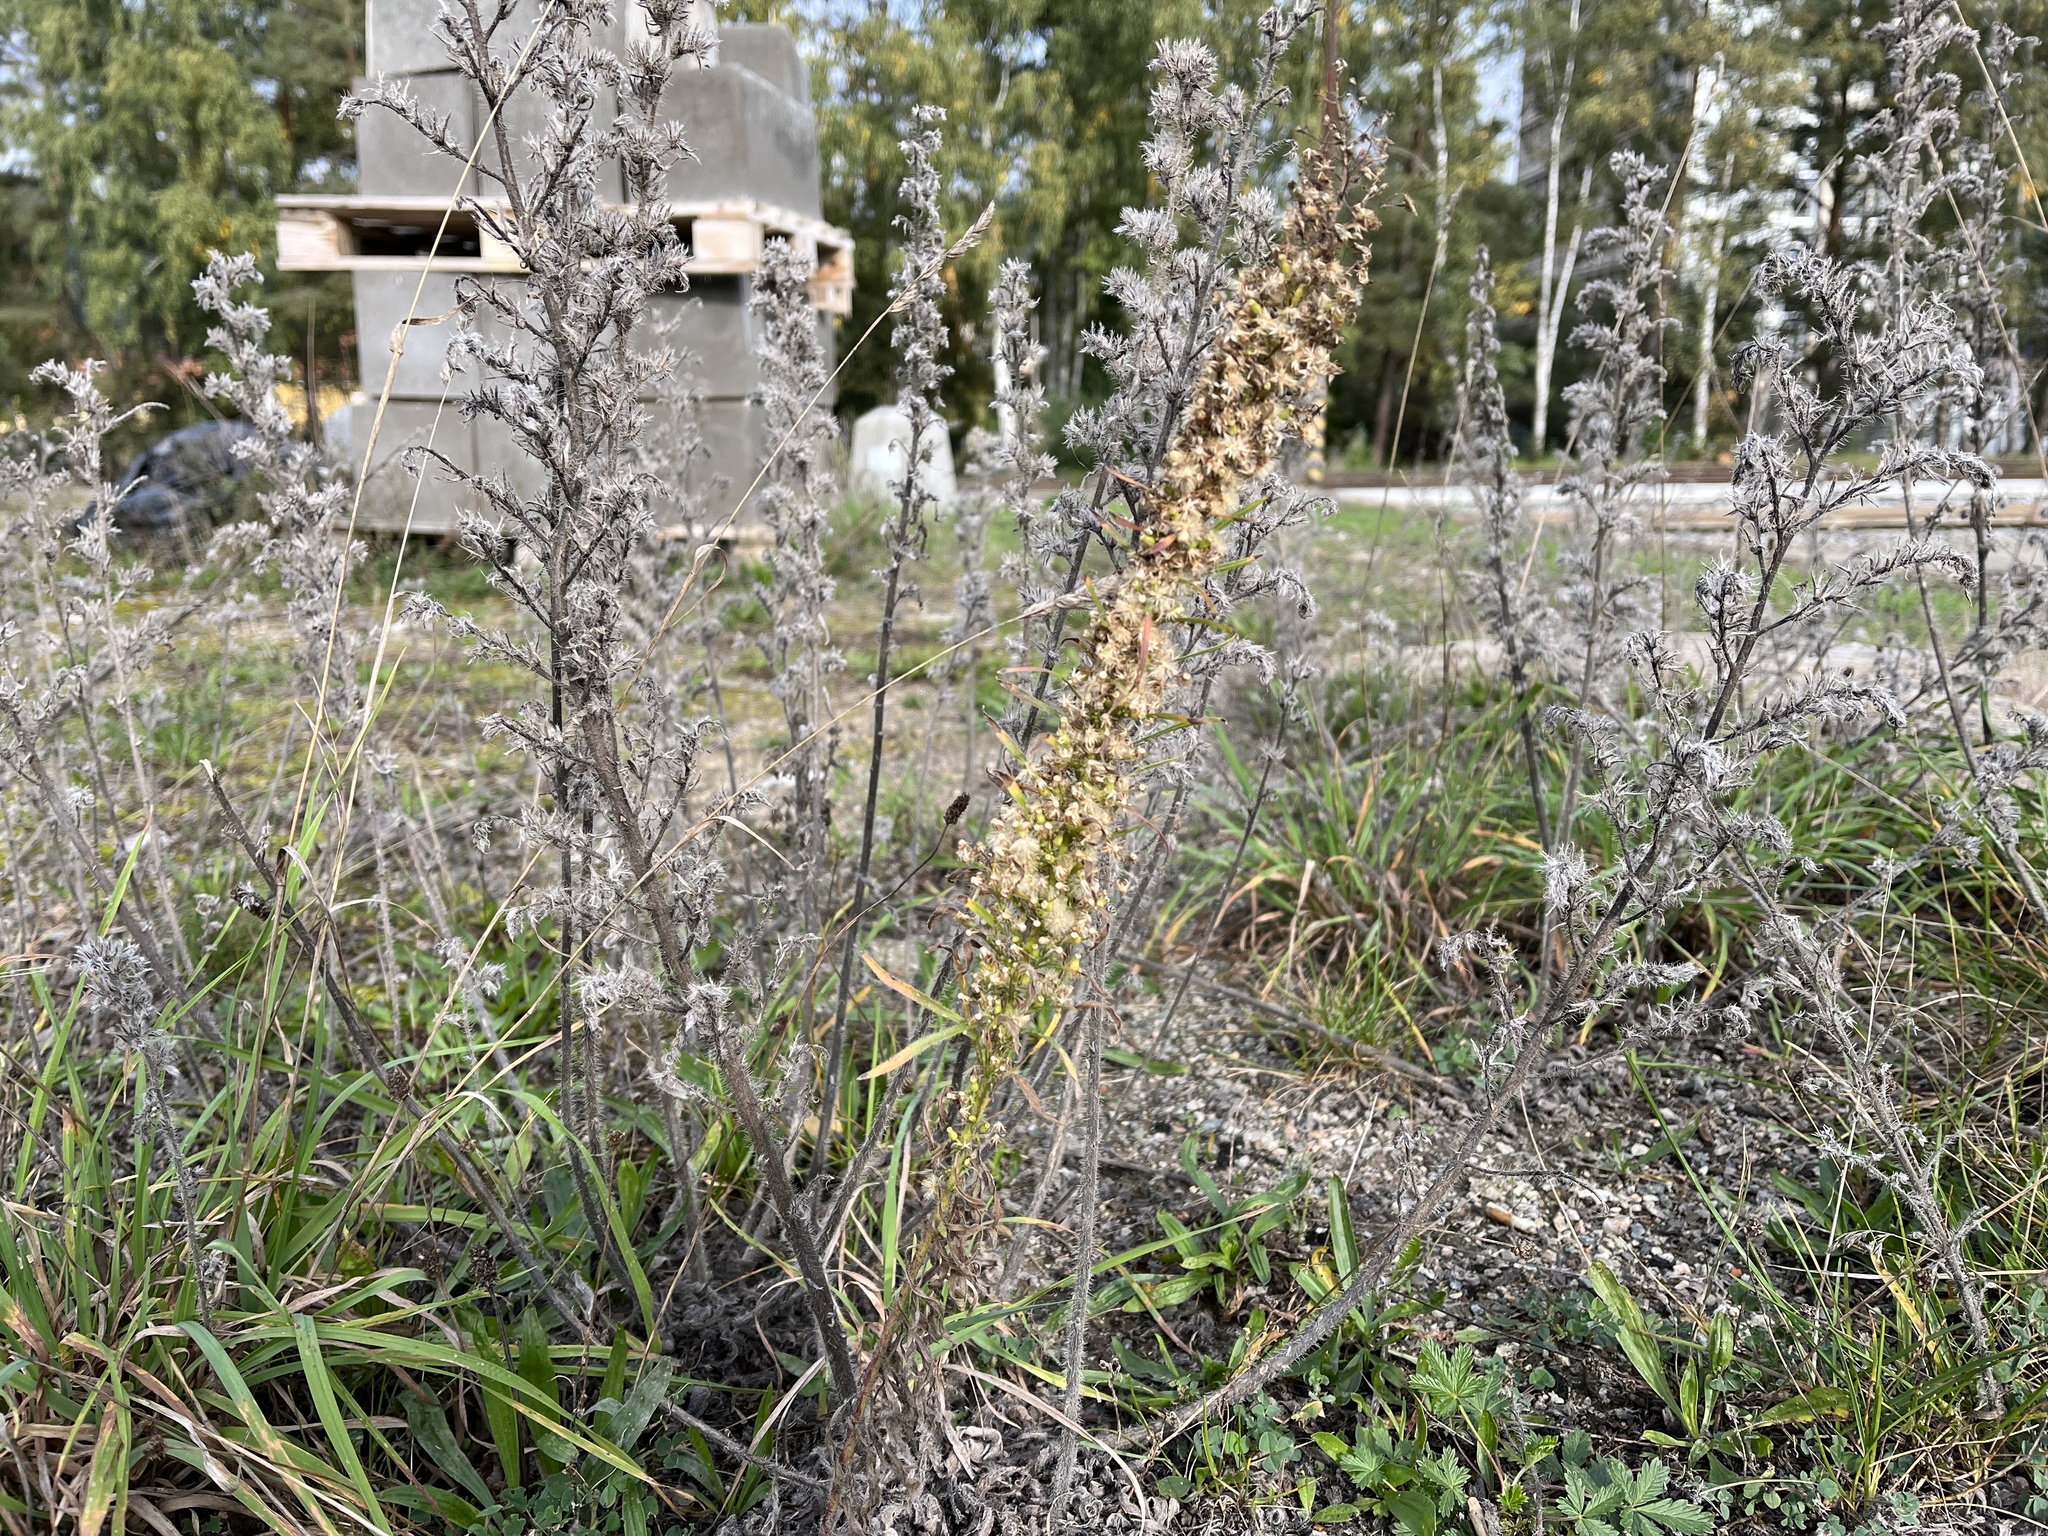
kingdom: Plantae
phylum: Tracheophyta
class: Magnoliopsida
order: Asterales
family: Asteraceae
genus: Erigeron
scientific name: Erigeron canadensis
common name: Canadian fleabane
